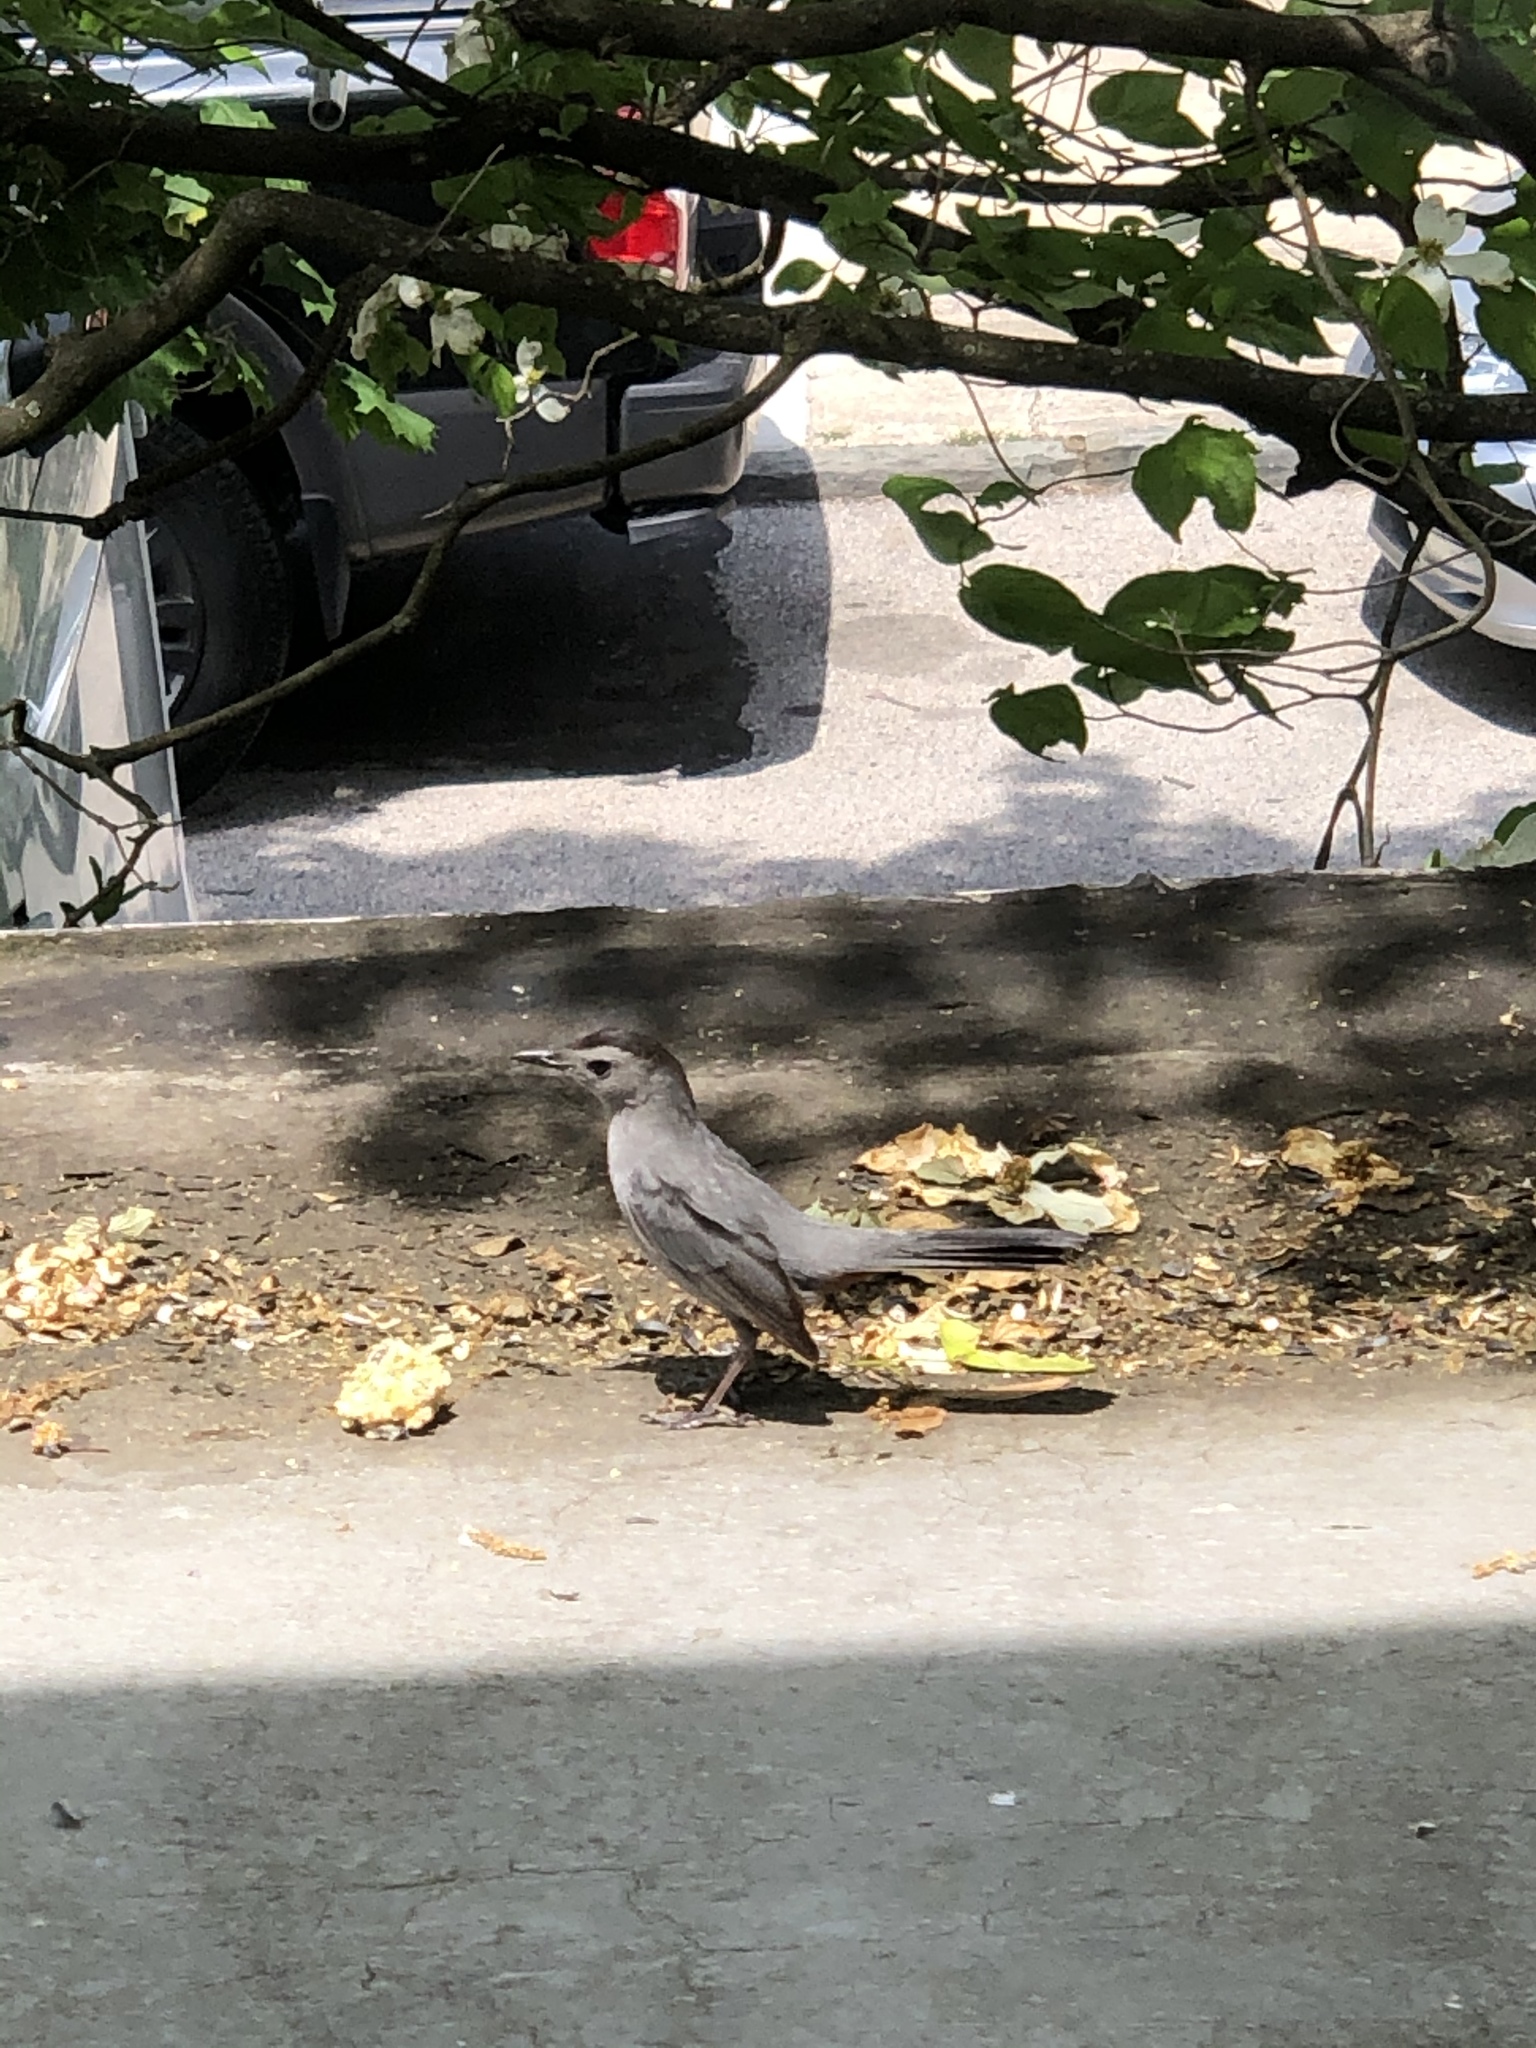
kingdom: Animalia
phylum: Chordata
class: Aves
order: Passeriformes
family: Mimidae
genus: Dumetella
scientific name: Dumetella carolinensis
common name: Gray catbird
